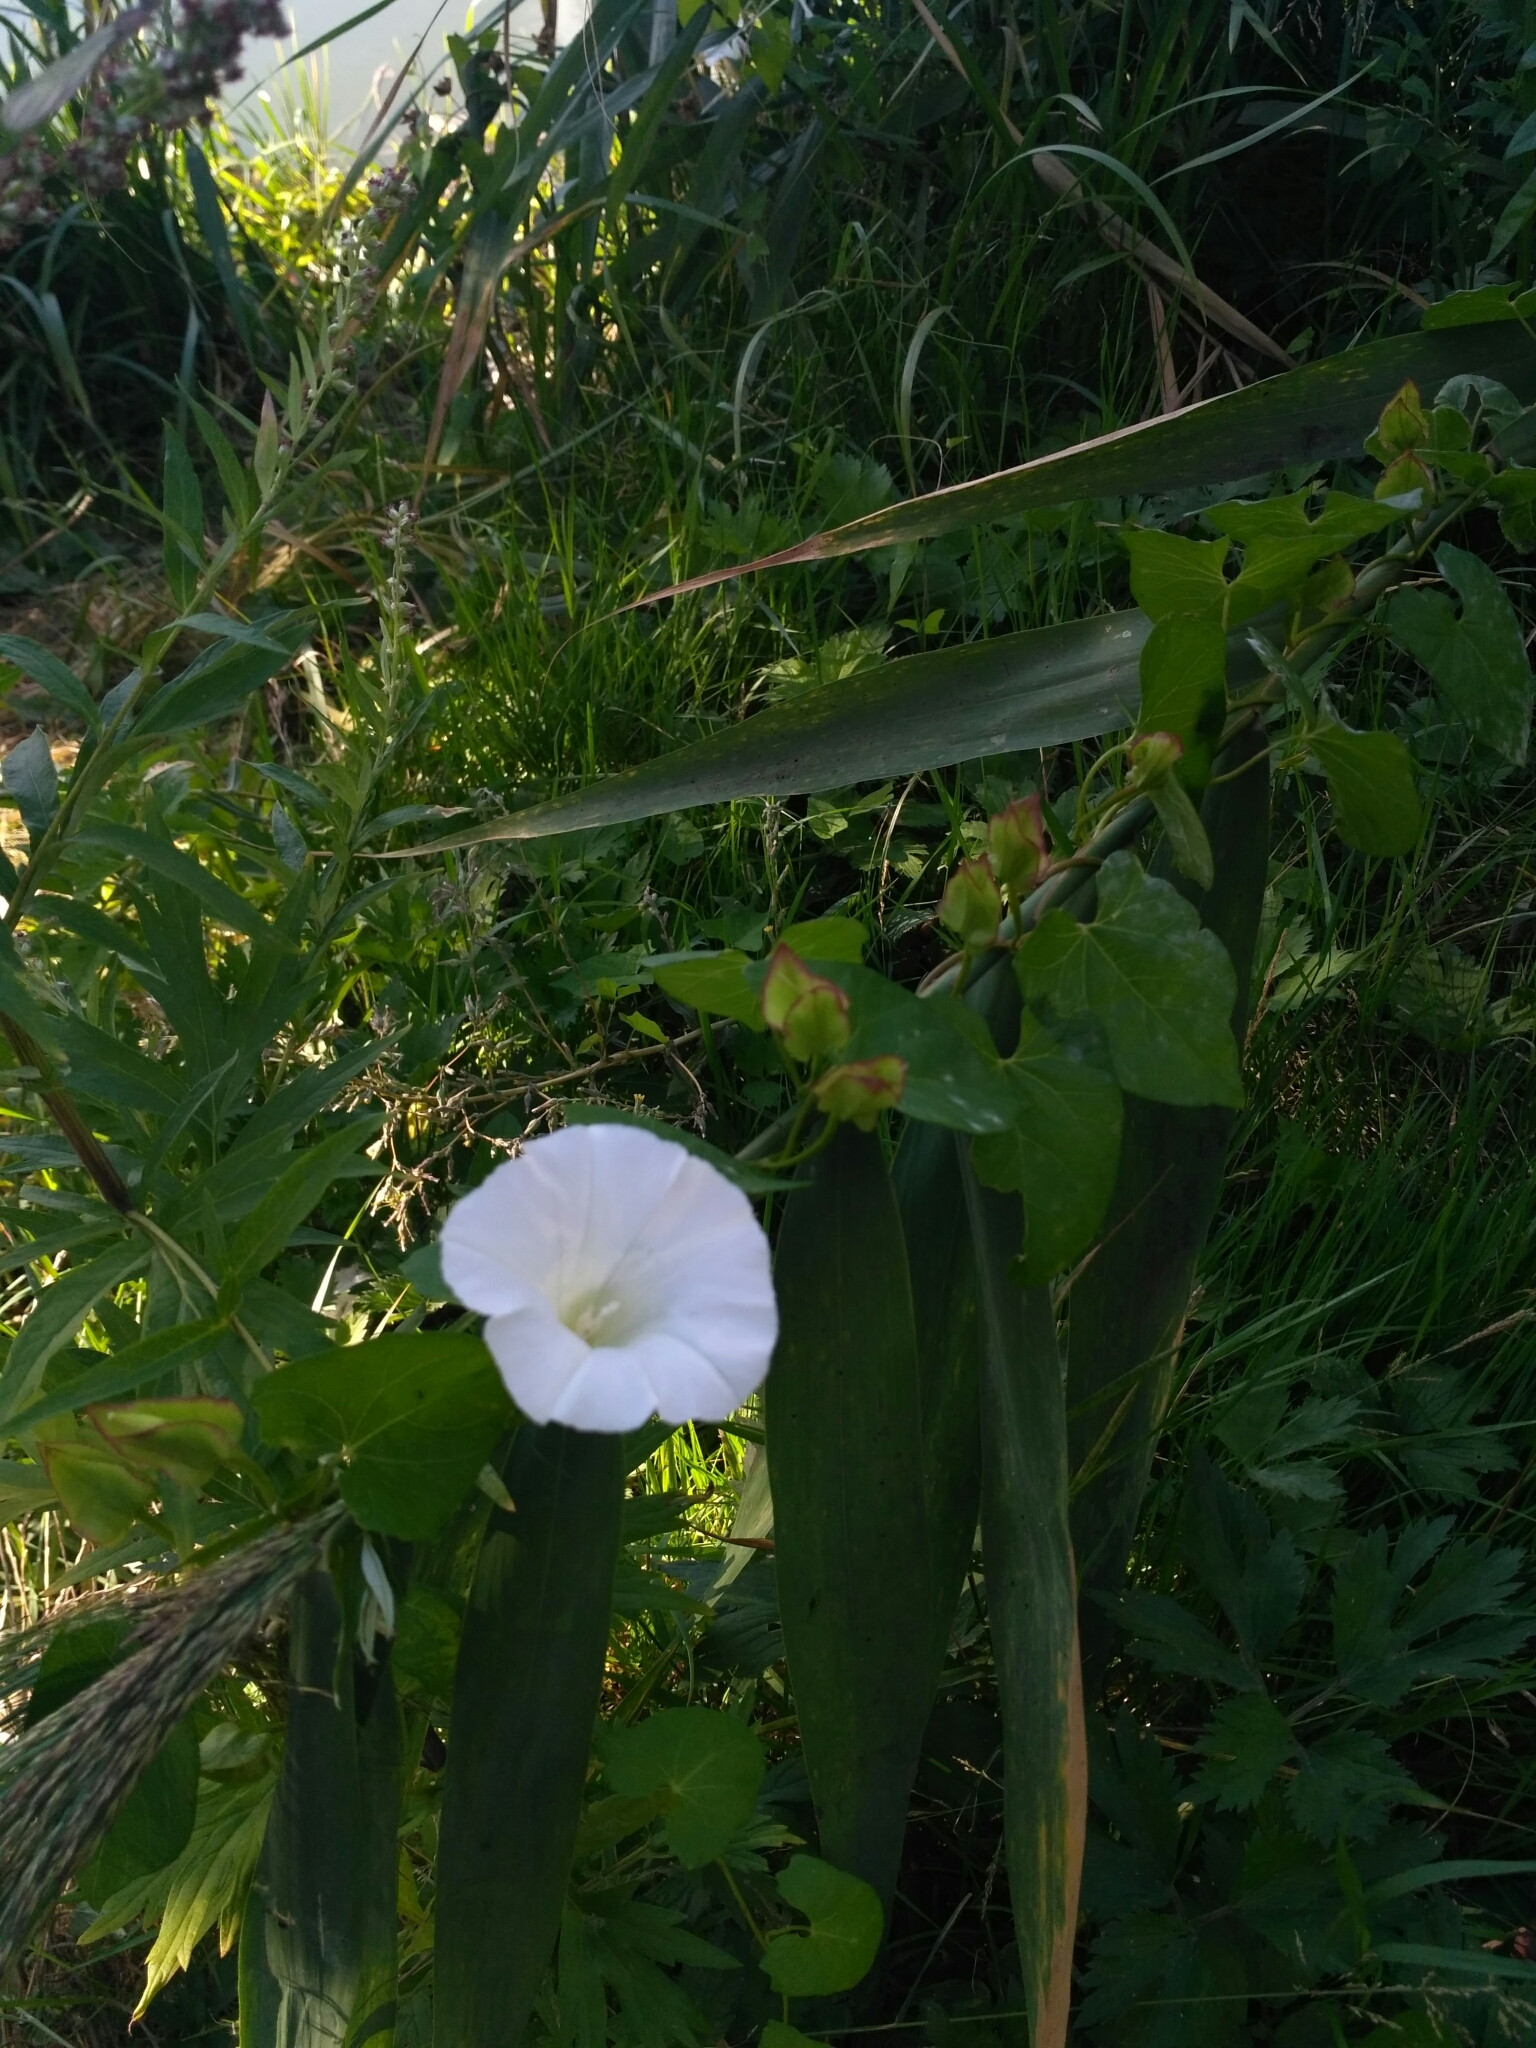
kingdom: Plantae
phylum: Tracheophyta
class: Magnoliopsida
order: Solanales
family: Convolvulaceae
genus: Calystegia
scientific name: Calystegia sepium
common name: Hedge bindweed
